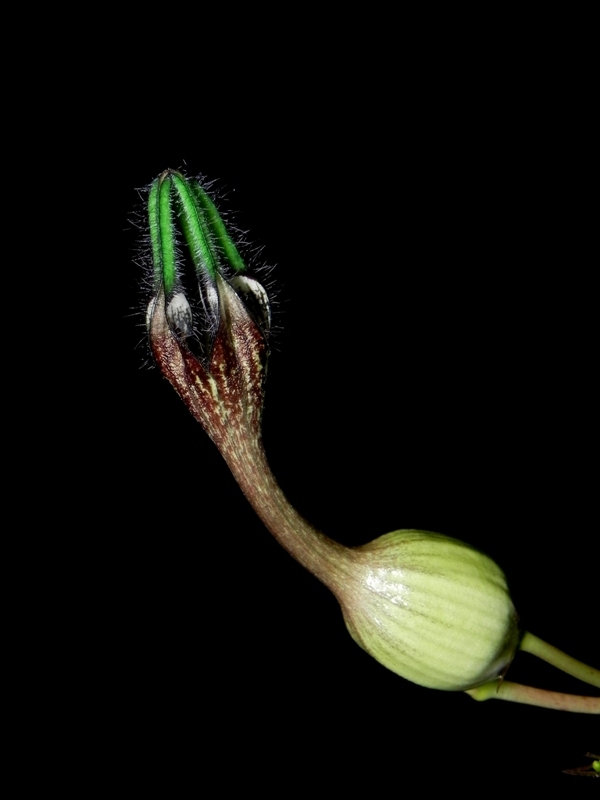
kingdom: Plantae
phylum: Tracheophyta
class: Magnoliopsida
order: Gentianales
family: Apocynaceae
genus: Ceropegia
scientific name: Ceropegia oculata
